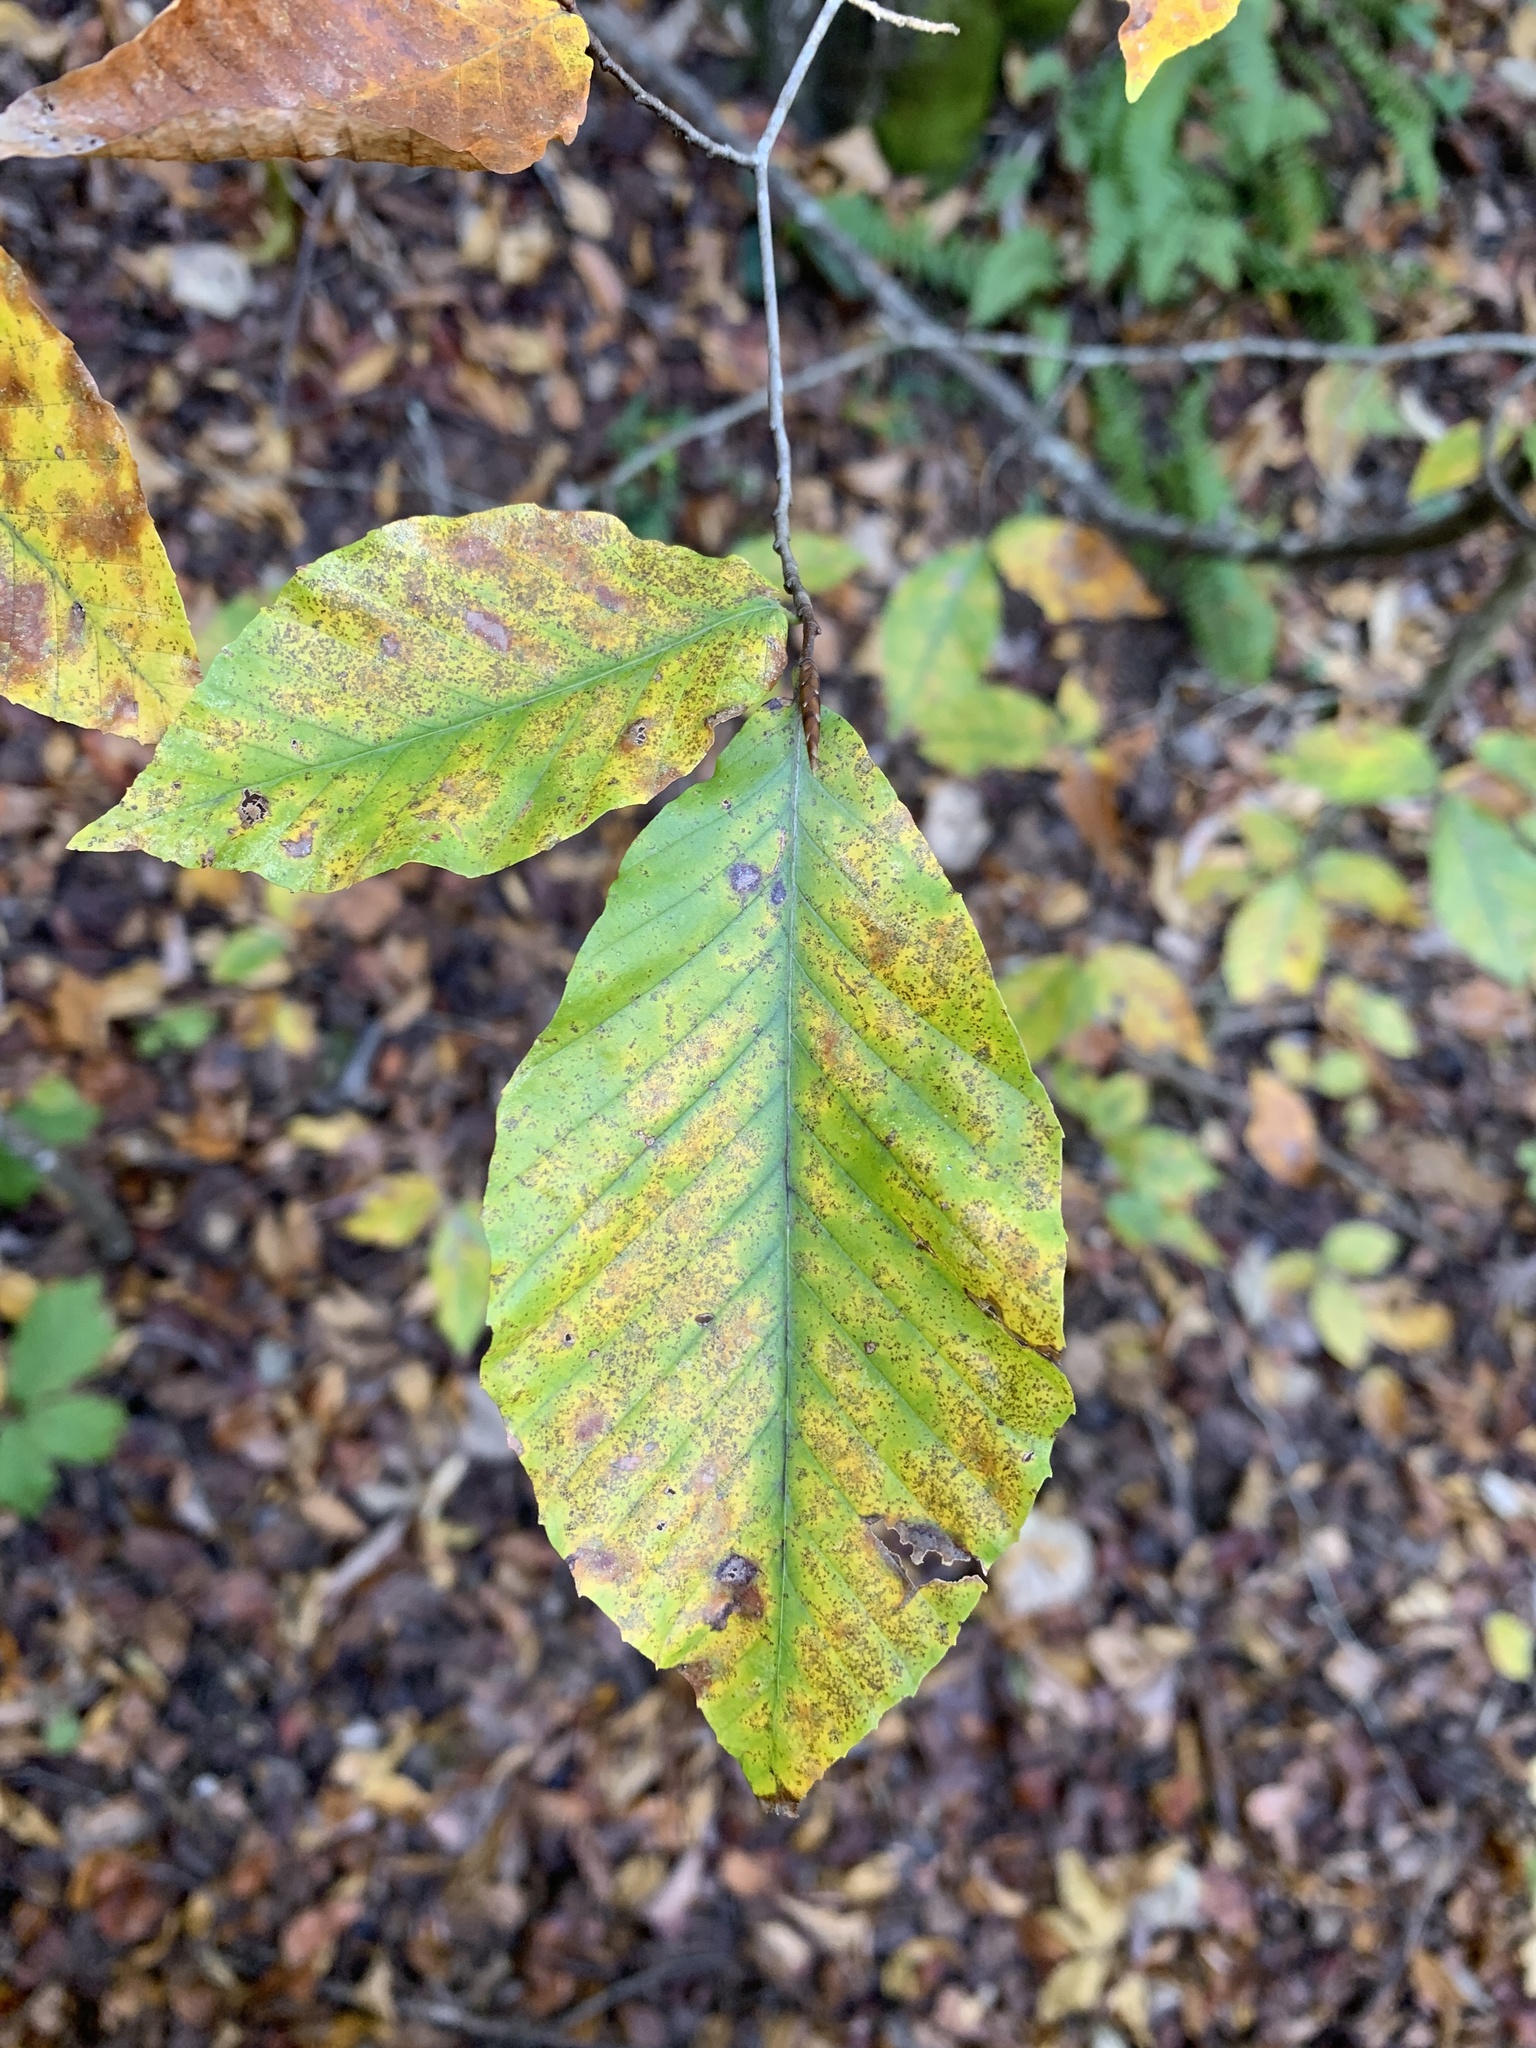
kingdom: Plantae
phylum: Tracheophyta
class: Magnoliopsida
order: Fagales
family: Fagaceae
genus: Fagus
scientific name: Fagus grandifolia
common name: American beech
